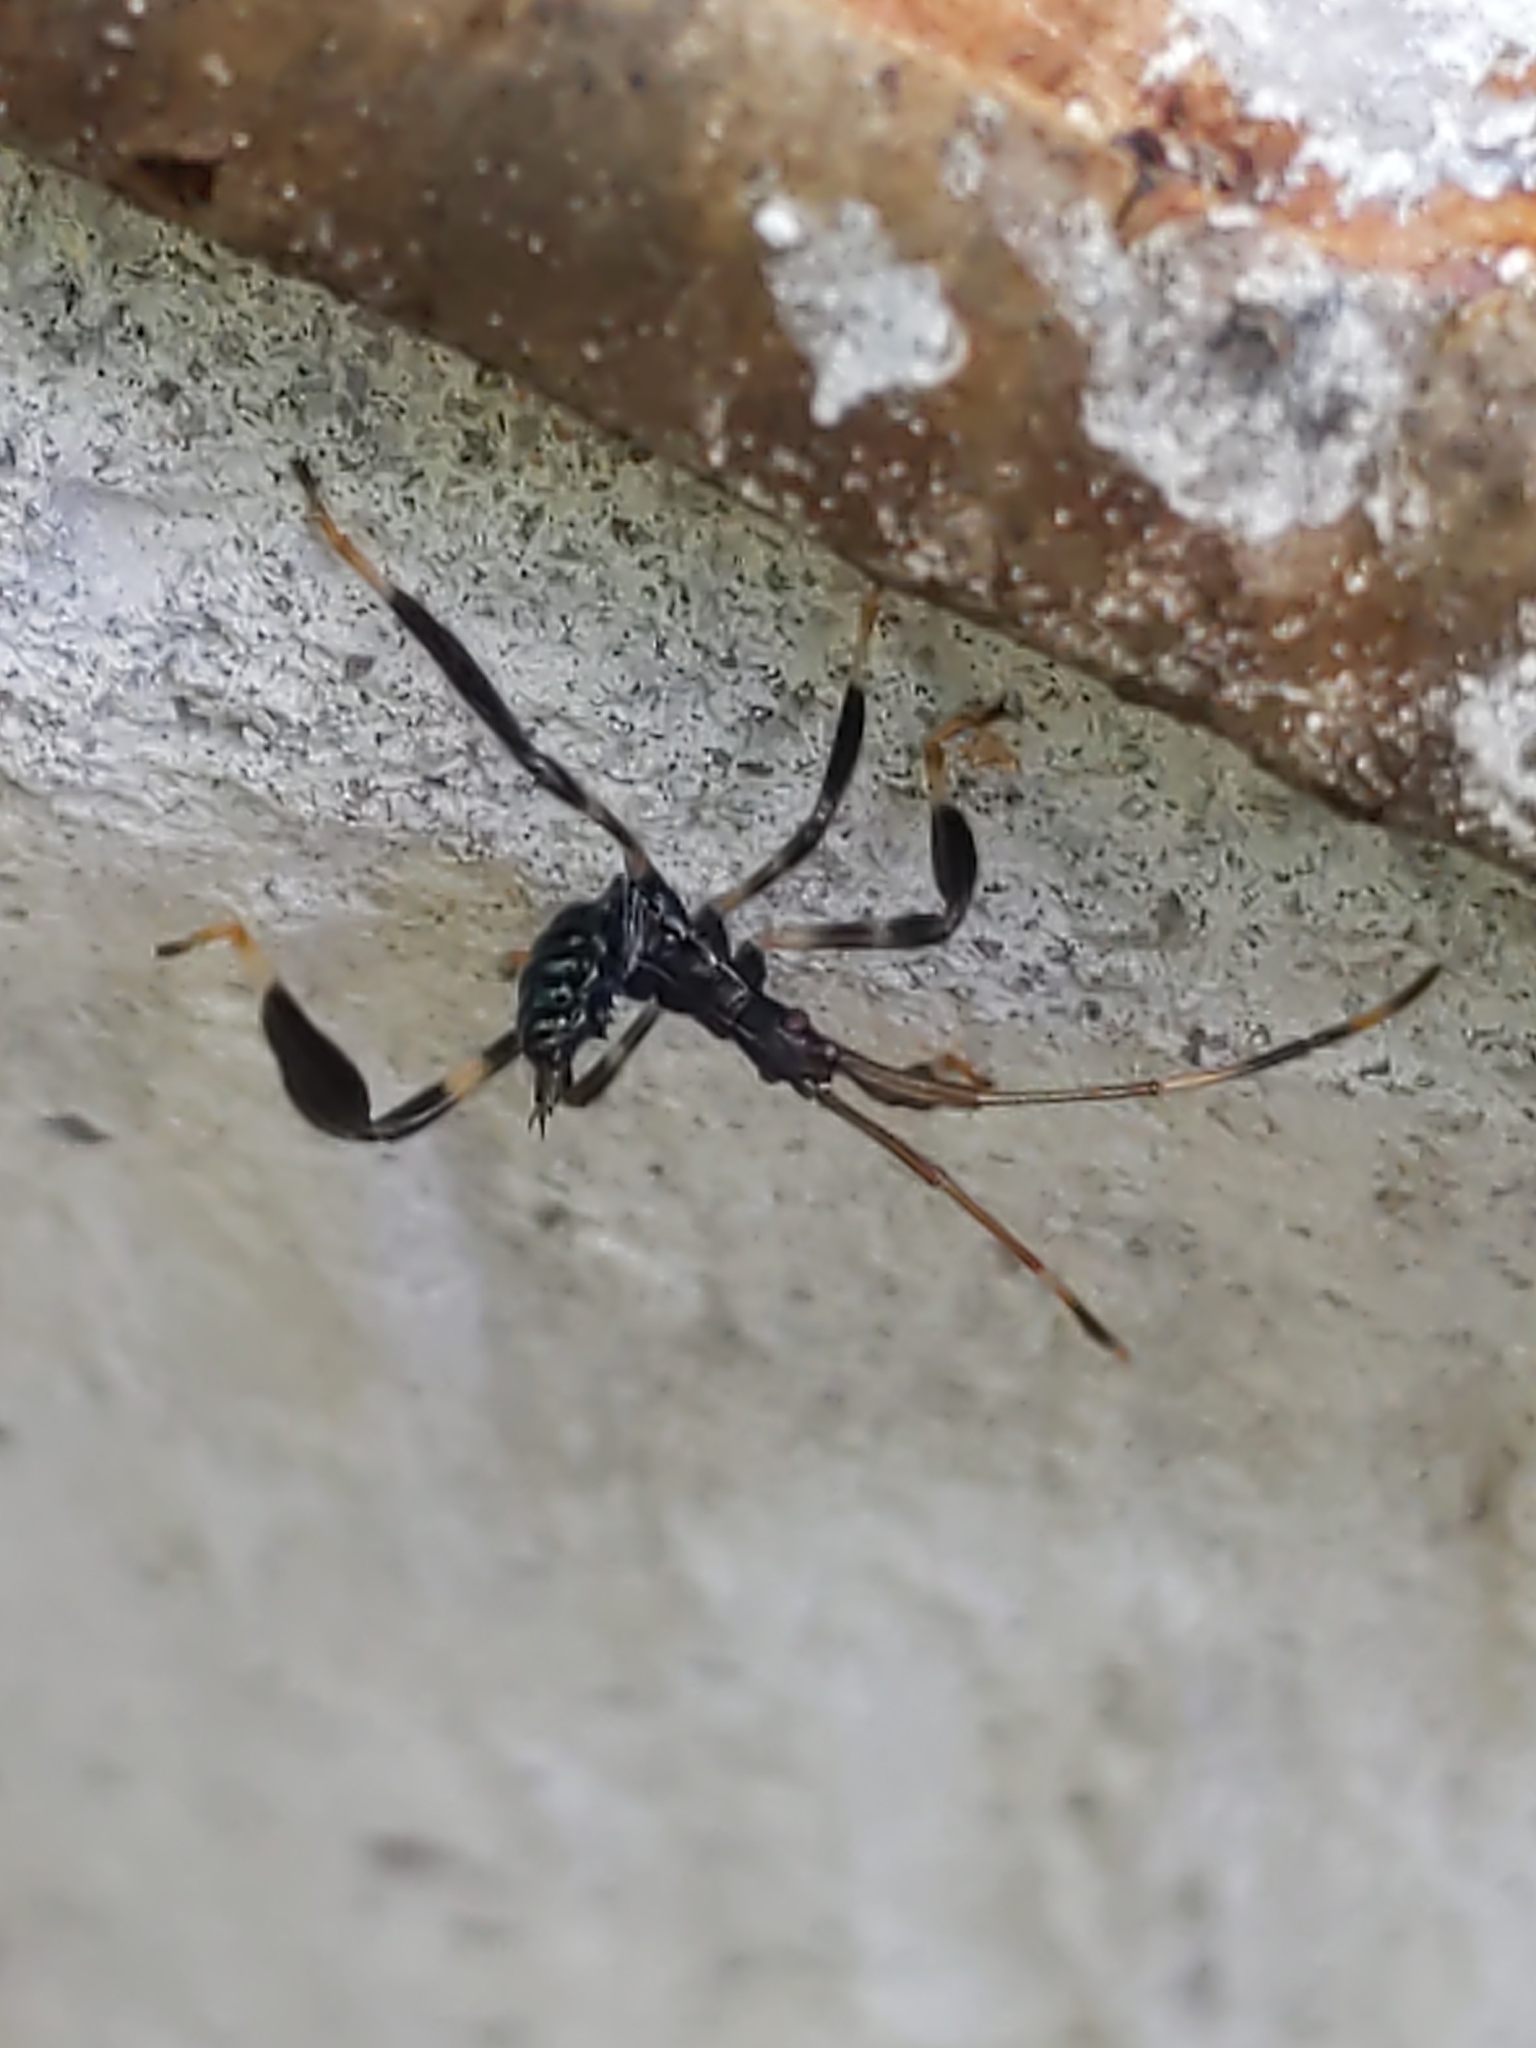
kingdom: Animalia
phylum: Arthropoda
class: Insecta
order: Hemiptera
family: Coreidae
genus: Acanthocephala
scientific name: Acanthocephala terminalis
